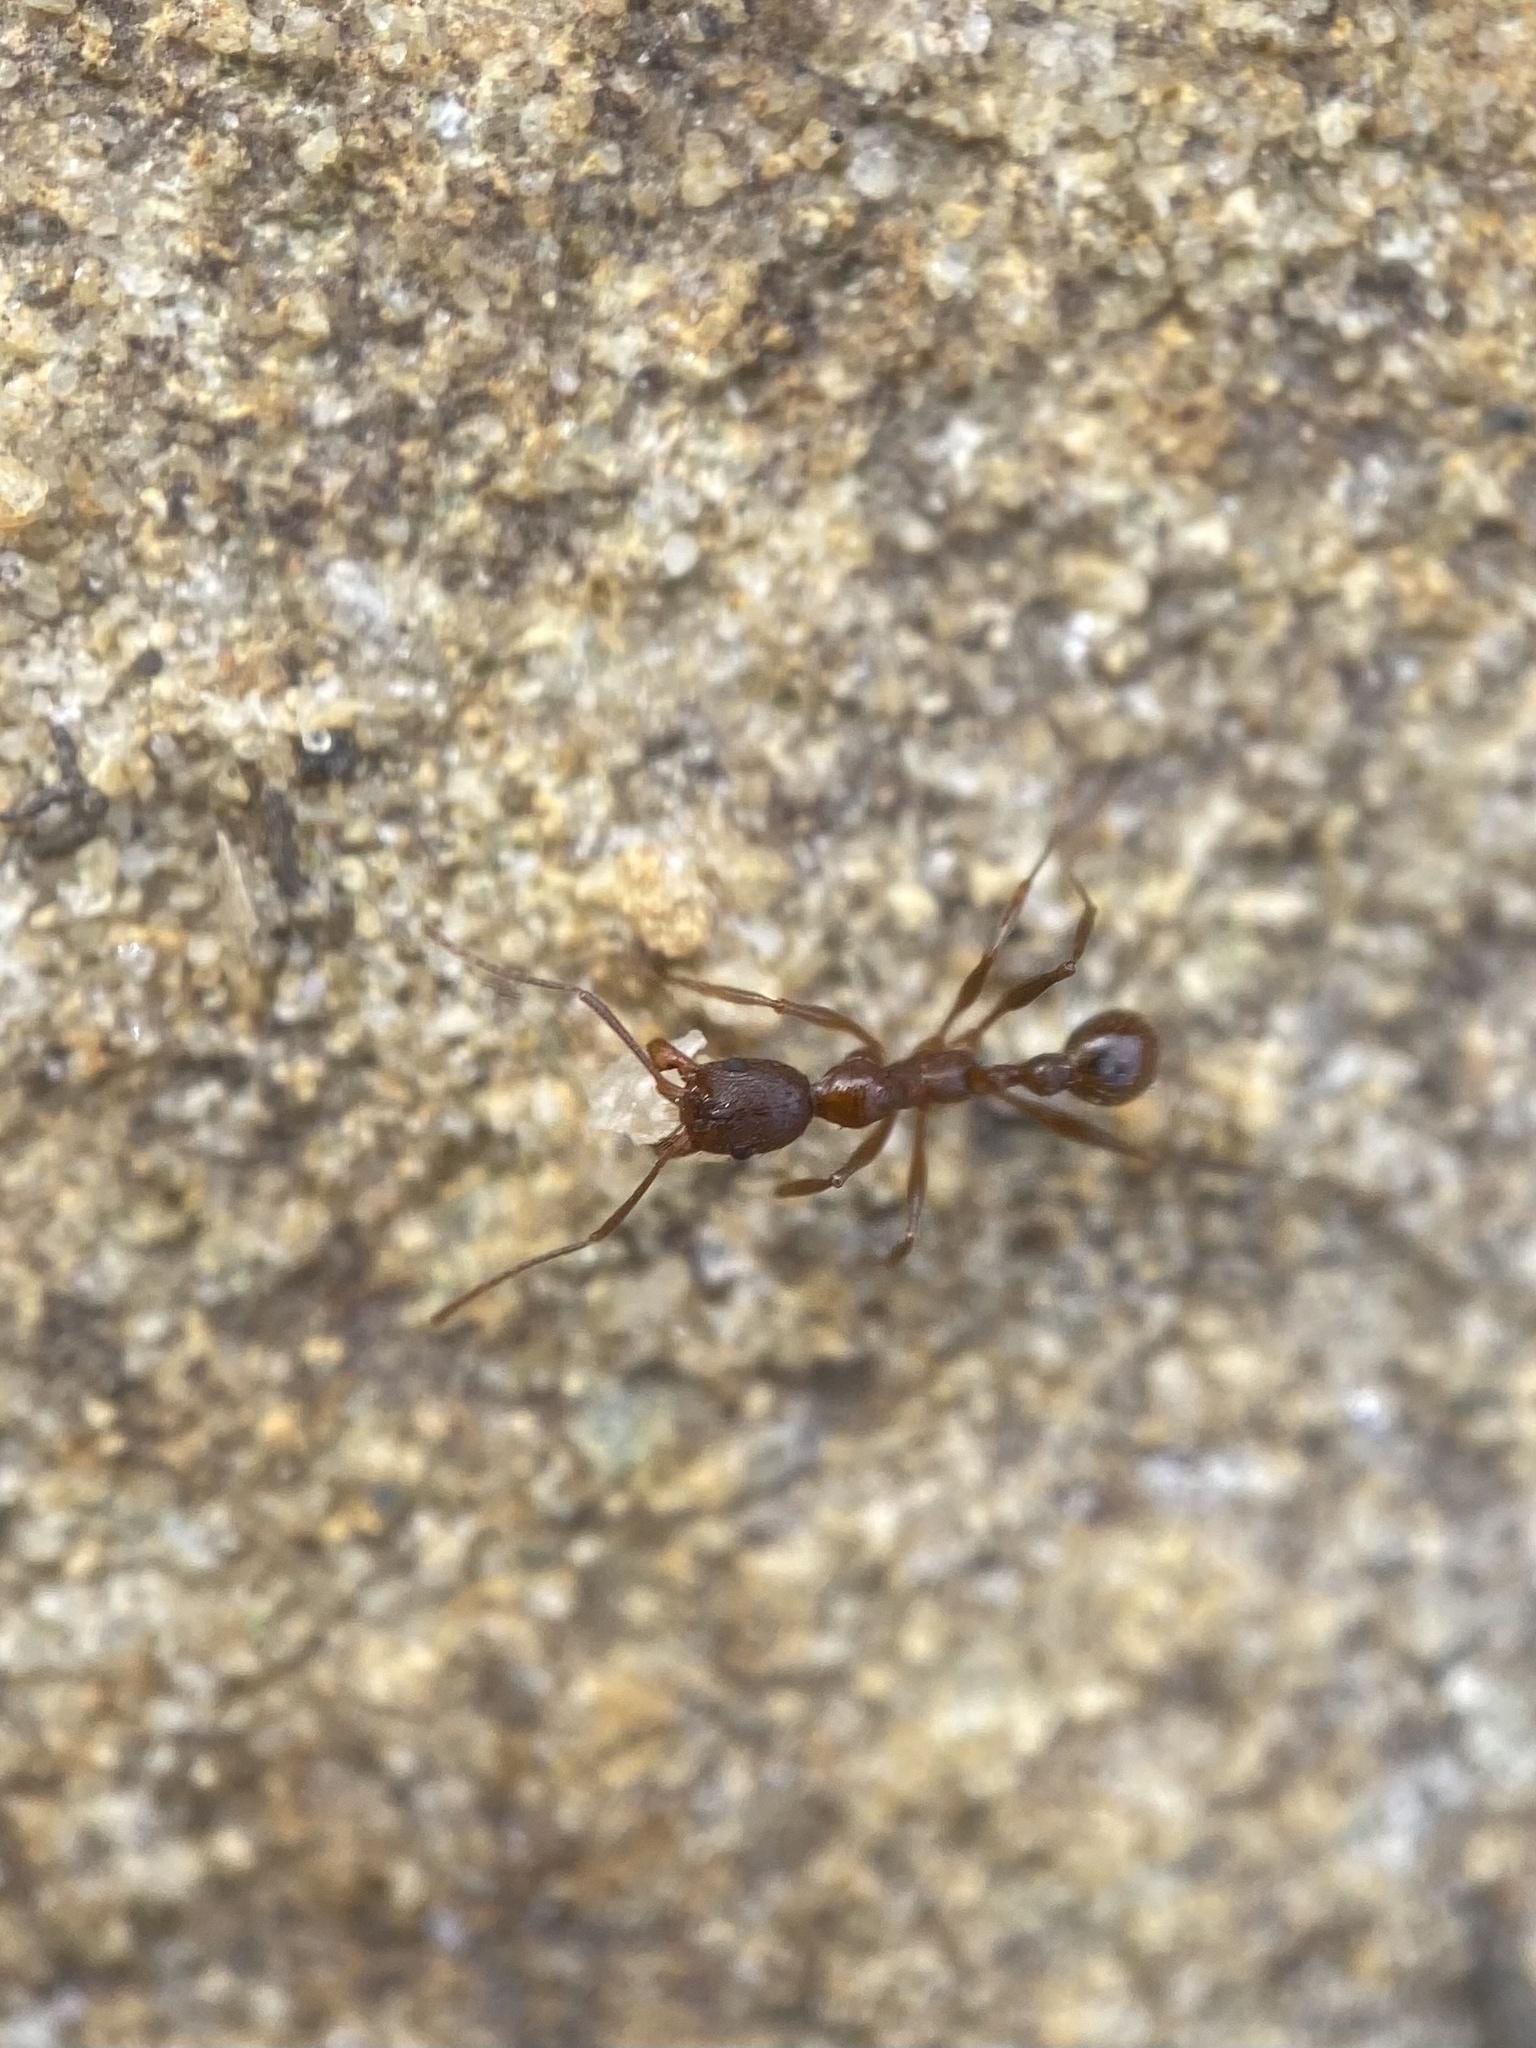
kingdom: Animalia
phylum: Arthropoda
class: Insecta
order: Hymenoptera
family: Formicidae
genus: Aphaenogaster
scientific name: Aphaenogaster treatae
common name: Treat's collared ant
